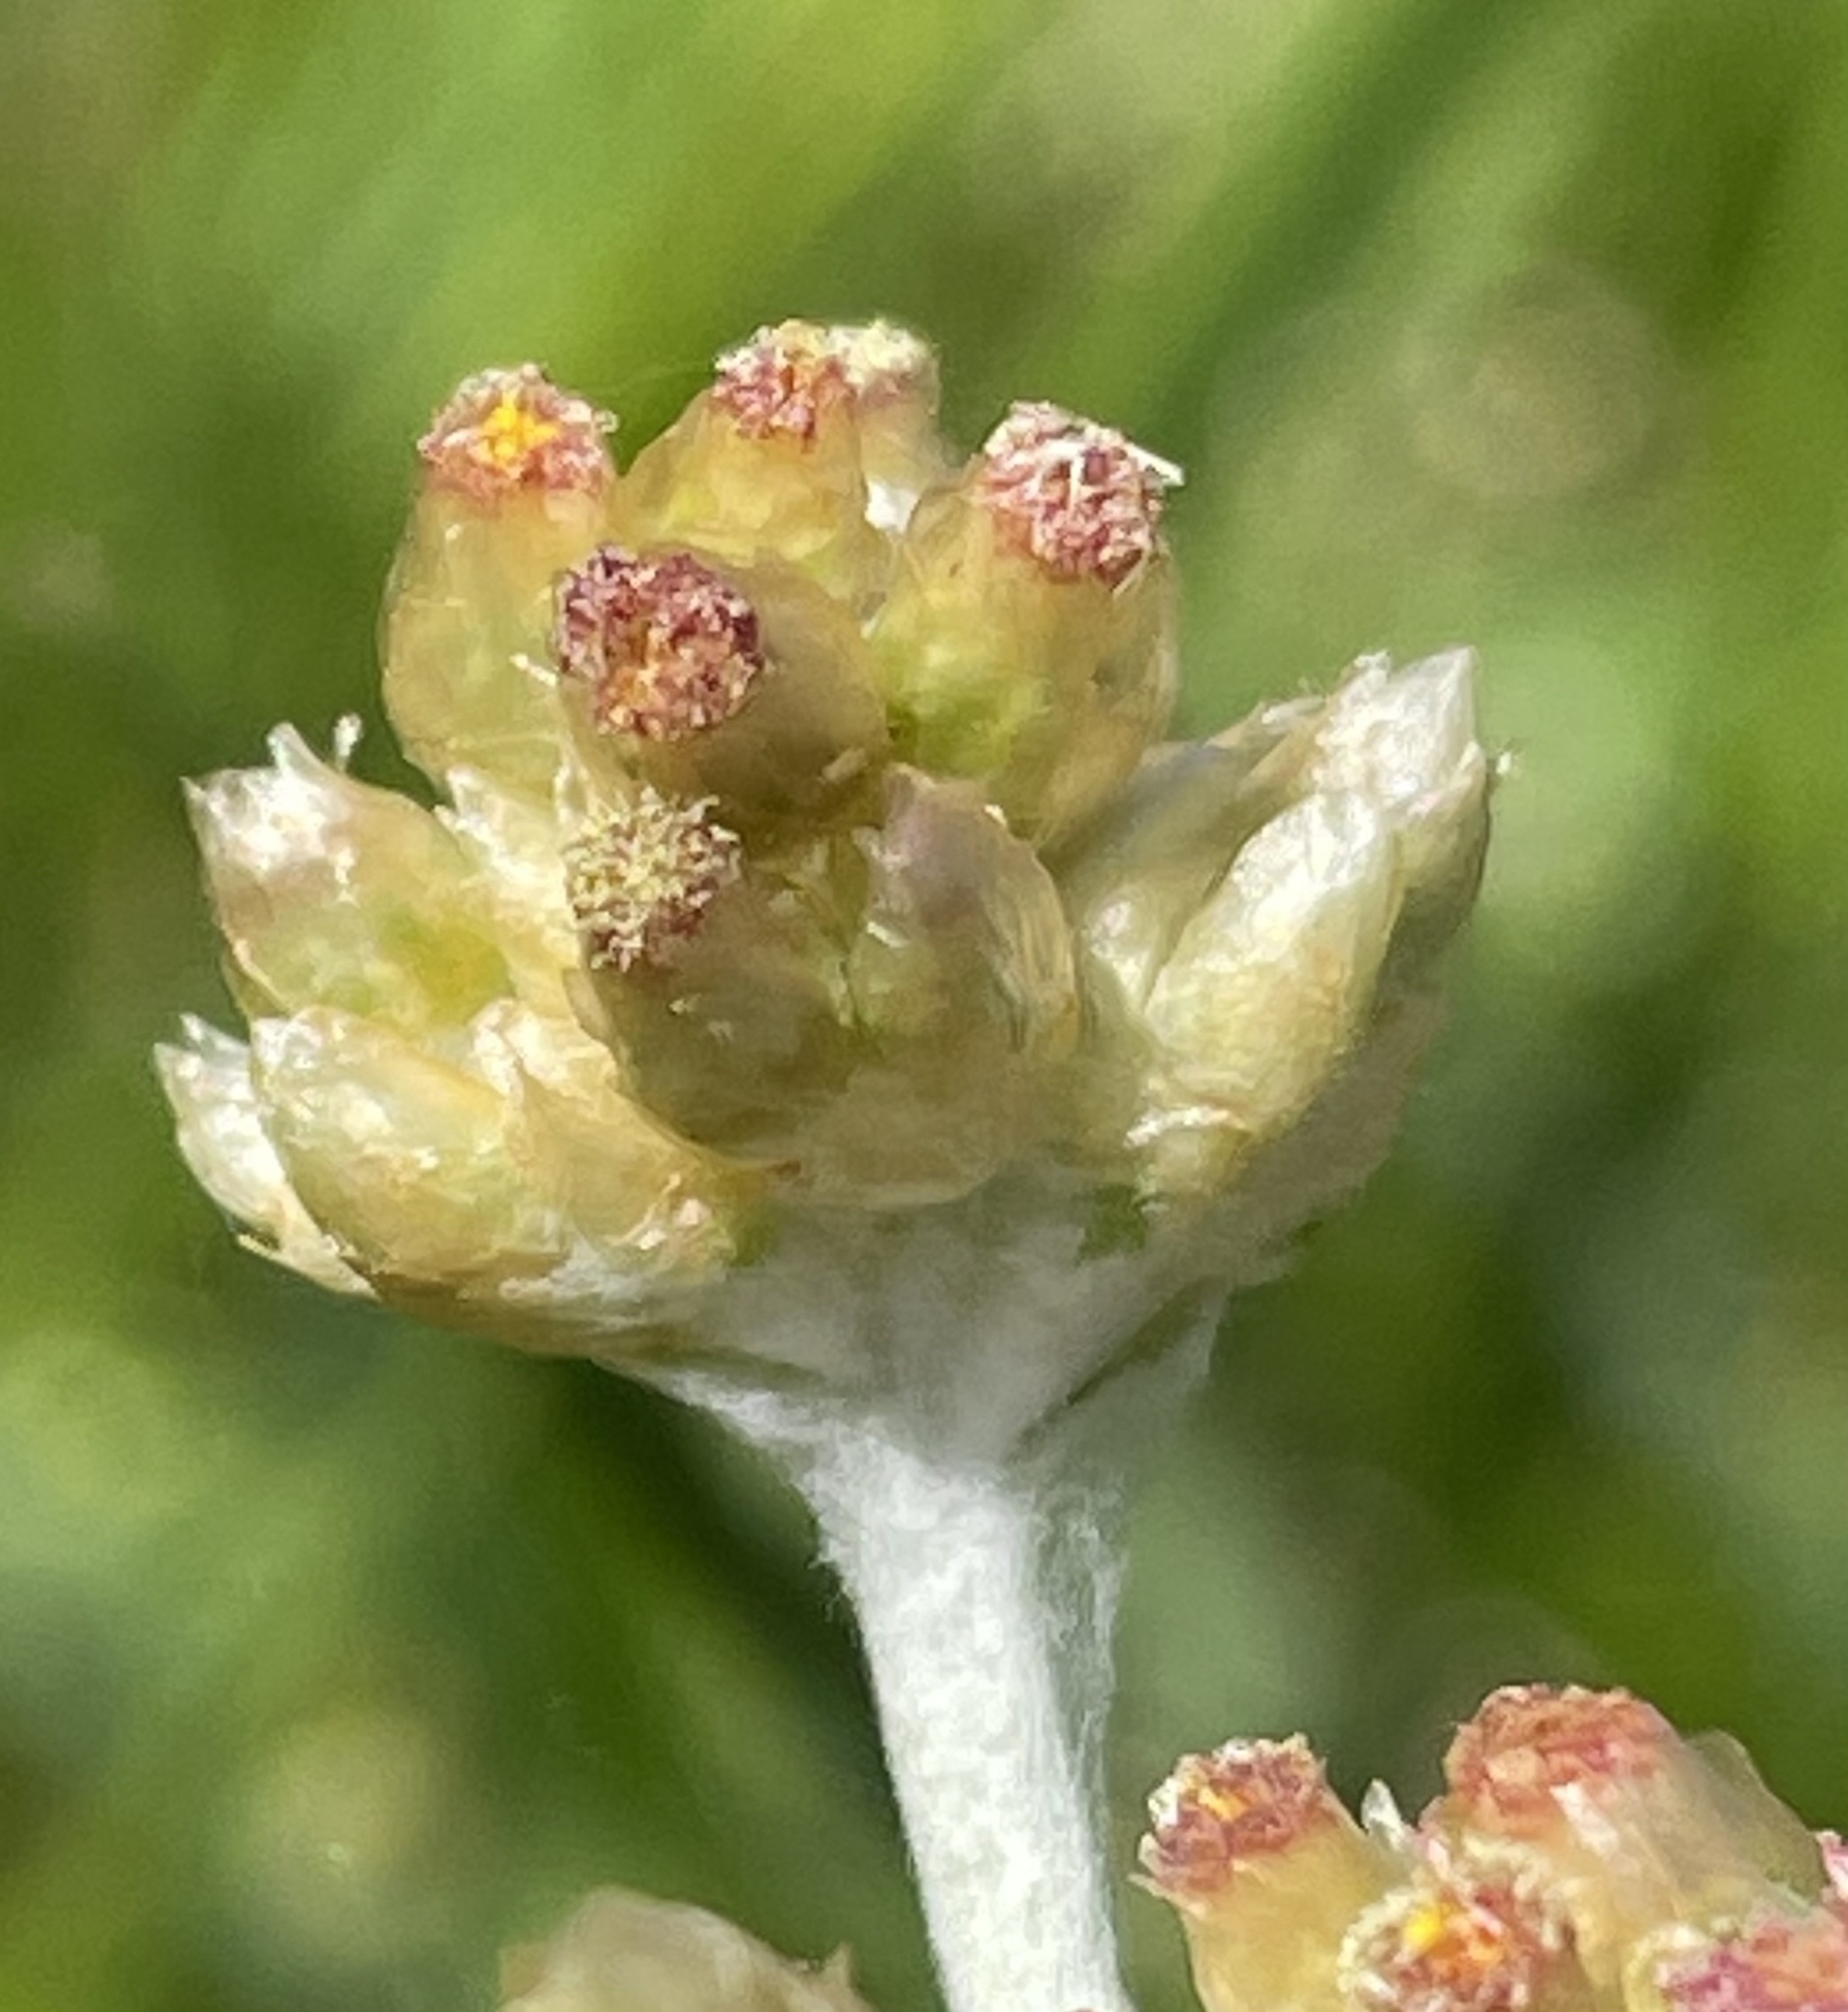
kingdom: Plantae
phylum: Tracheophyta
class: Magnoliopsida
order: Asterales
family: Asteraceae
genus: Helichrysum
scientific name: Helichrysum luteoalbum
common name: Daisy
